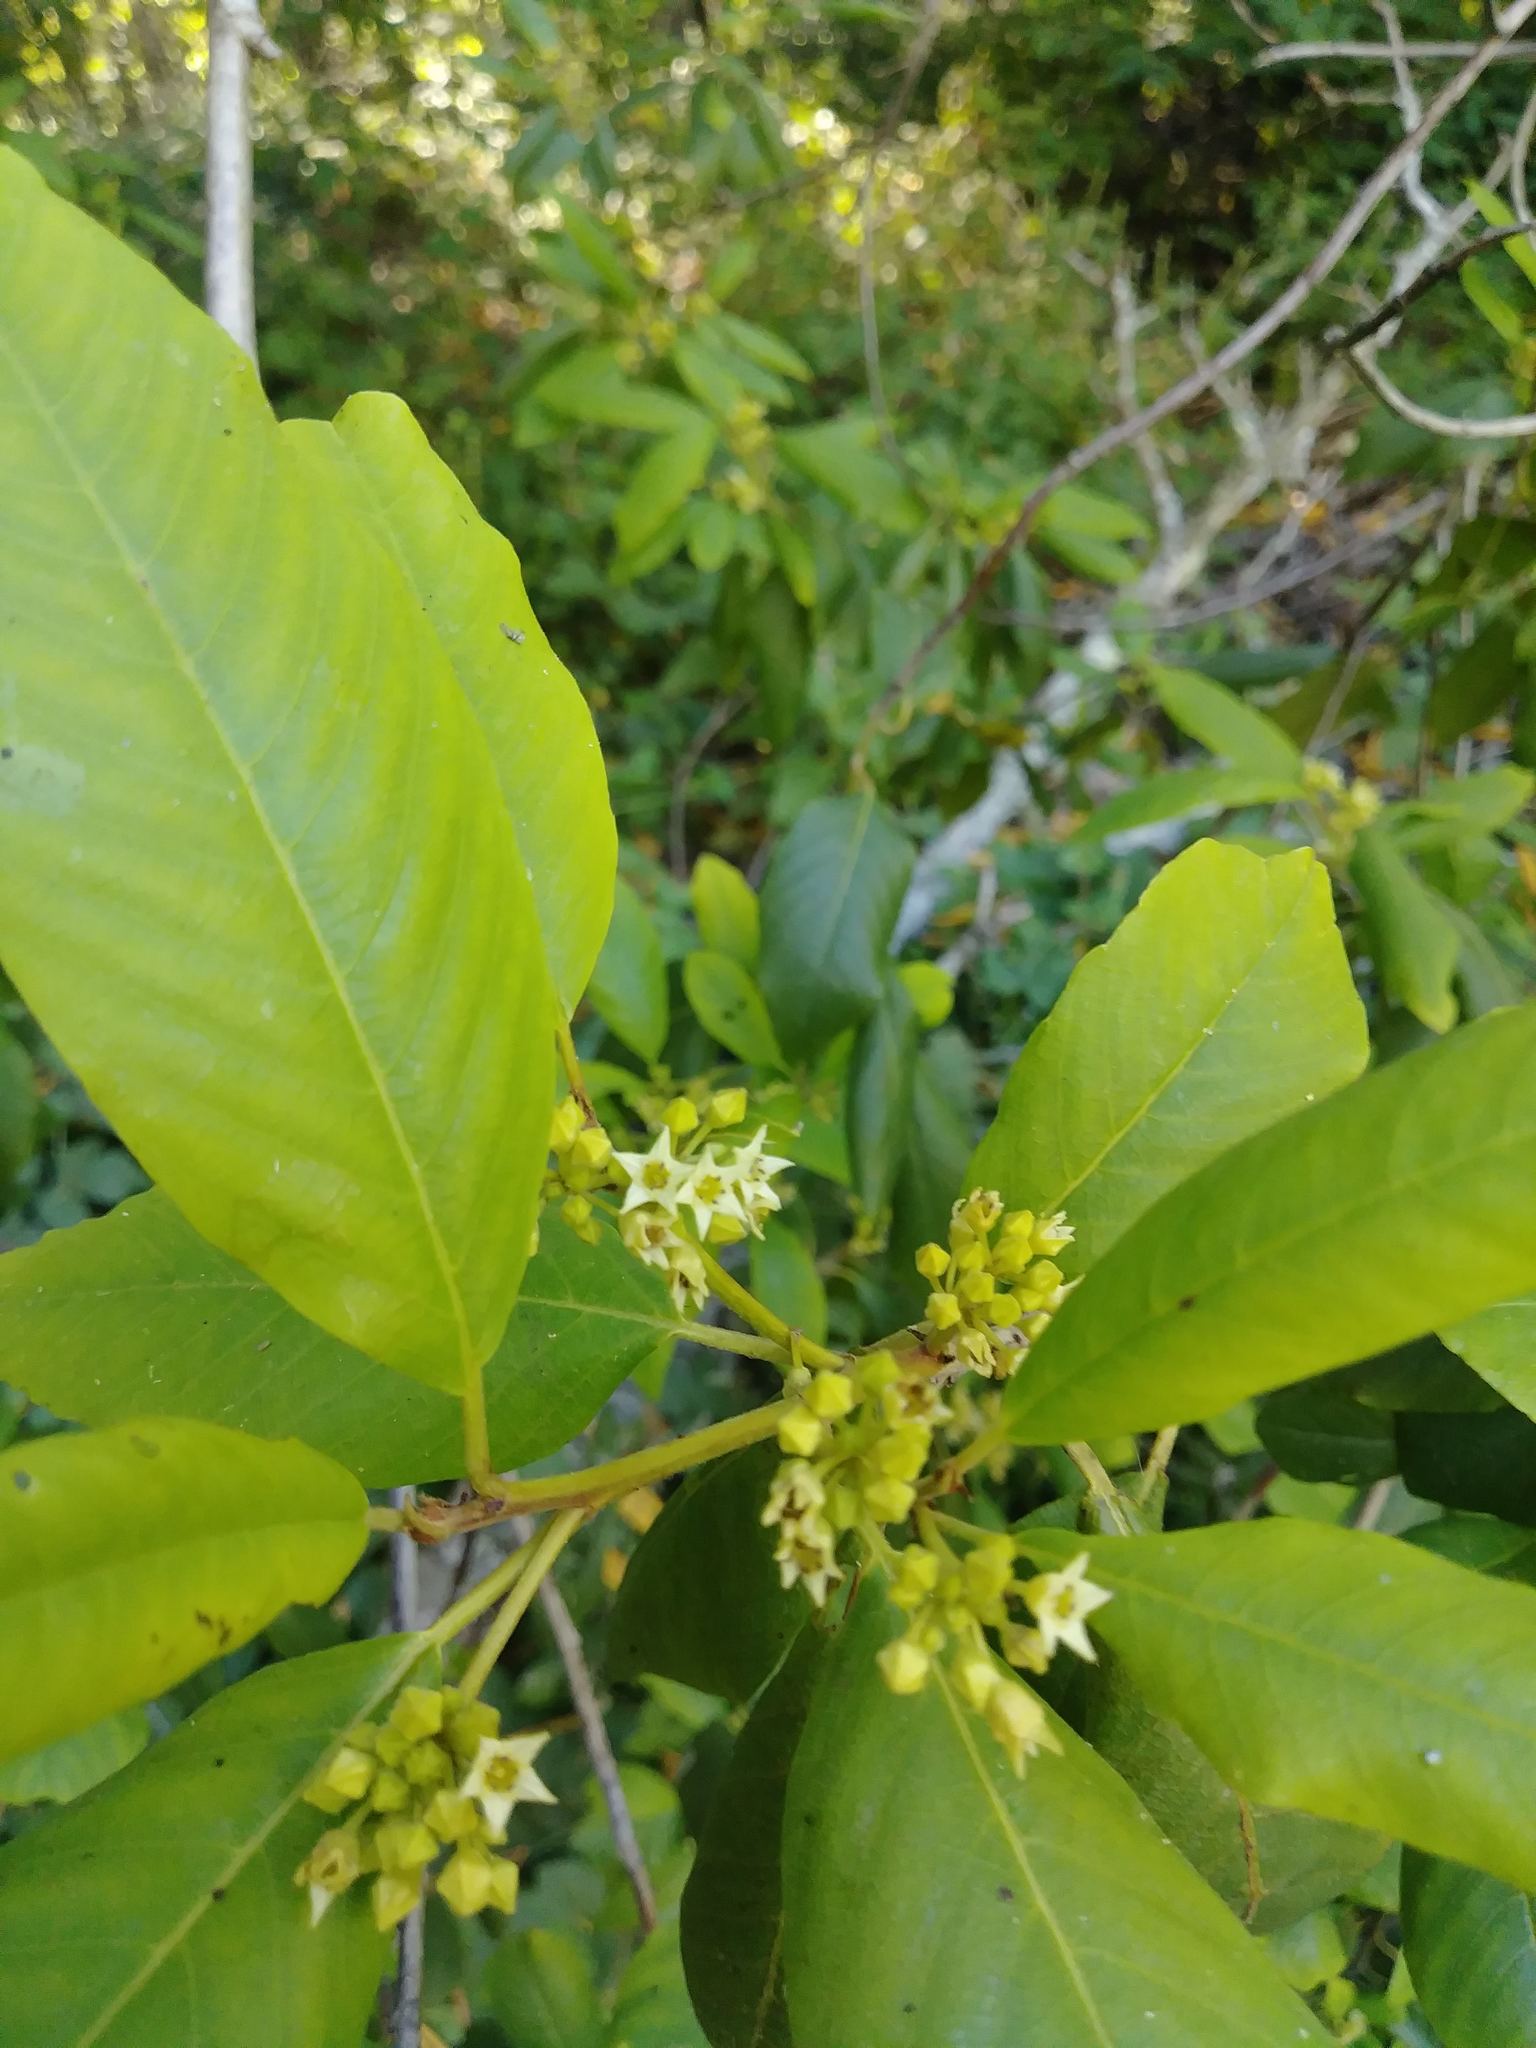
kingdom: Plantae
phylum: Tracheophyta
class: Magnoliopsida
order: Rosales
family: Rhamnaceae
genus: Frangula
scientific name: Frangula californica
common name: California buckthorn
